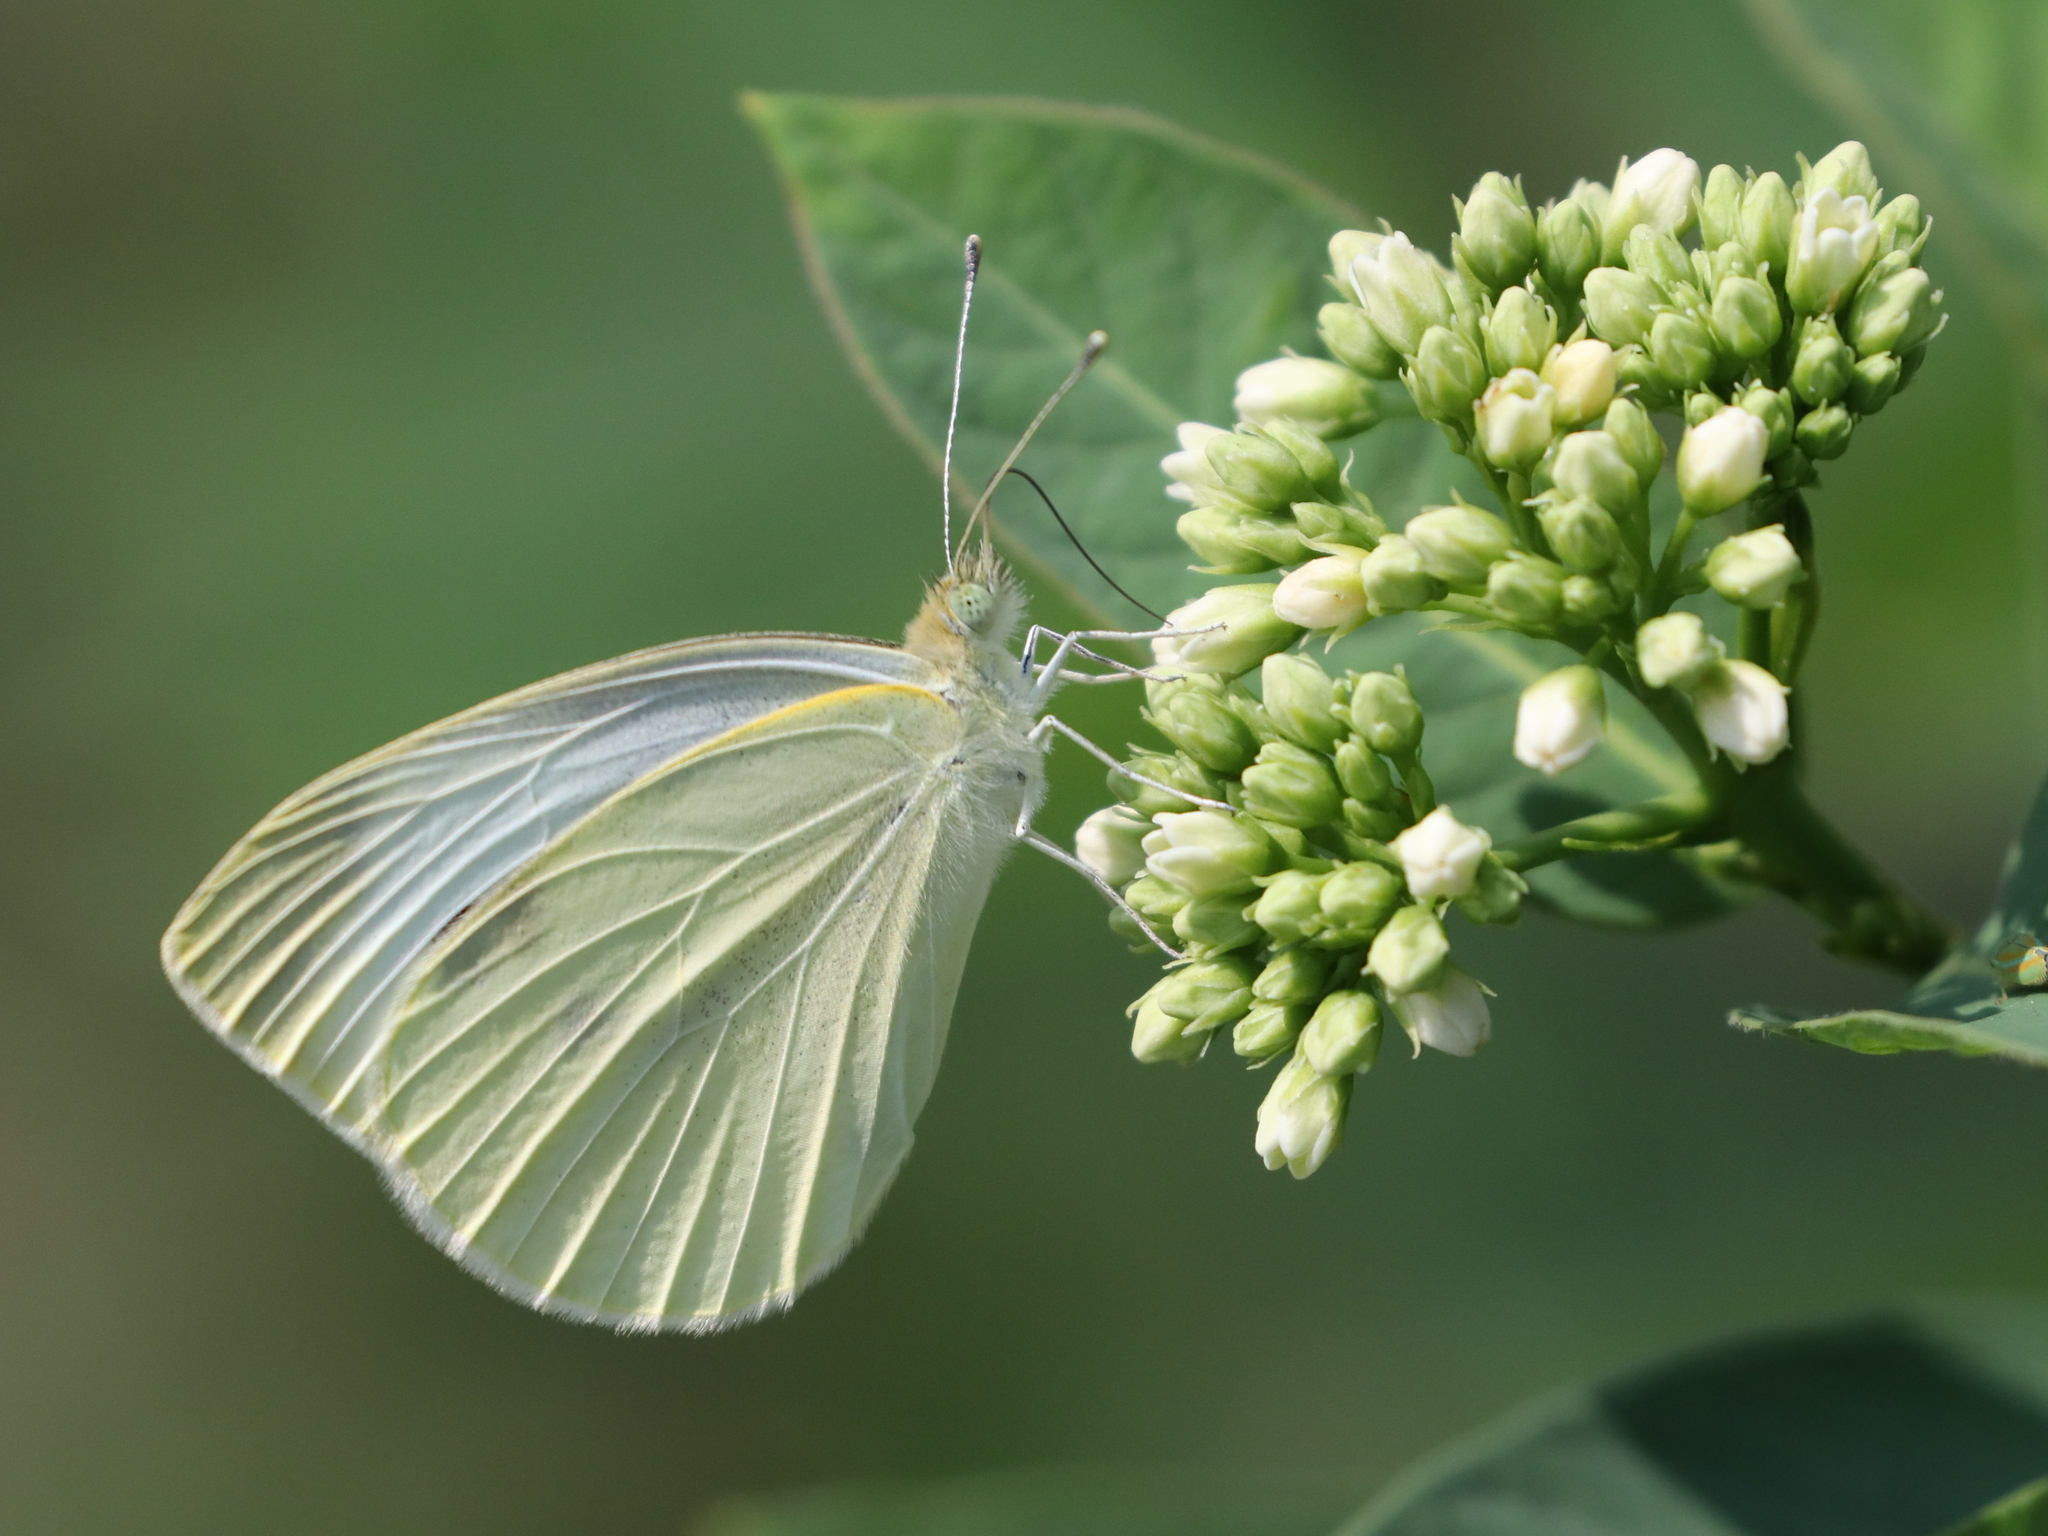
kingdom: Animalia
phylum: Arthropoda
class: Insecta
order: Lepidoptera
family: Pieridae
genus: Pieris
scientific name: Pieris rapae
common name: Small white
